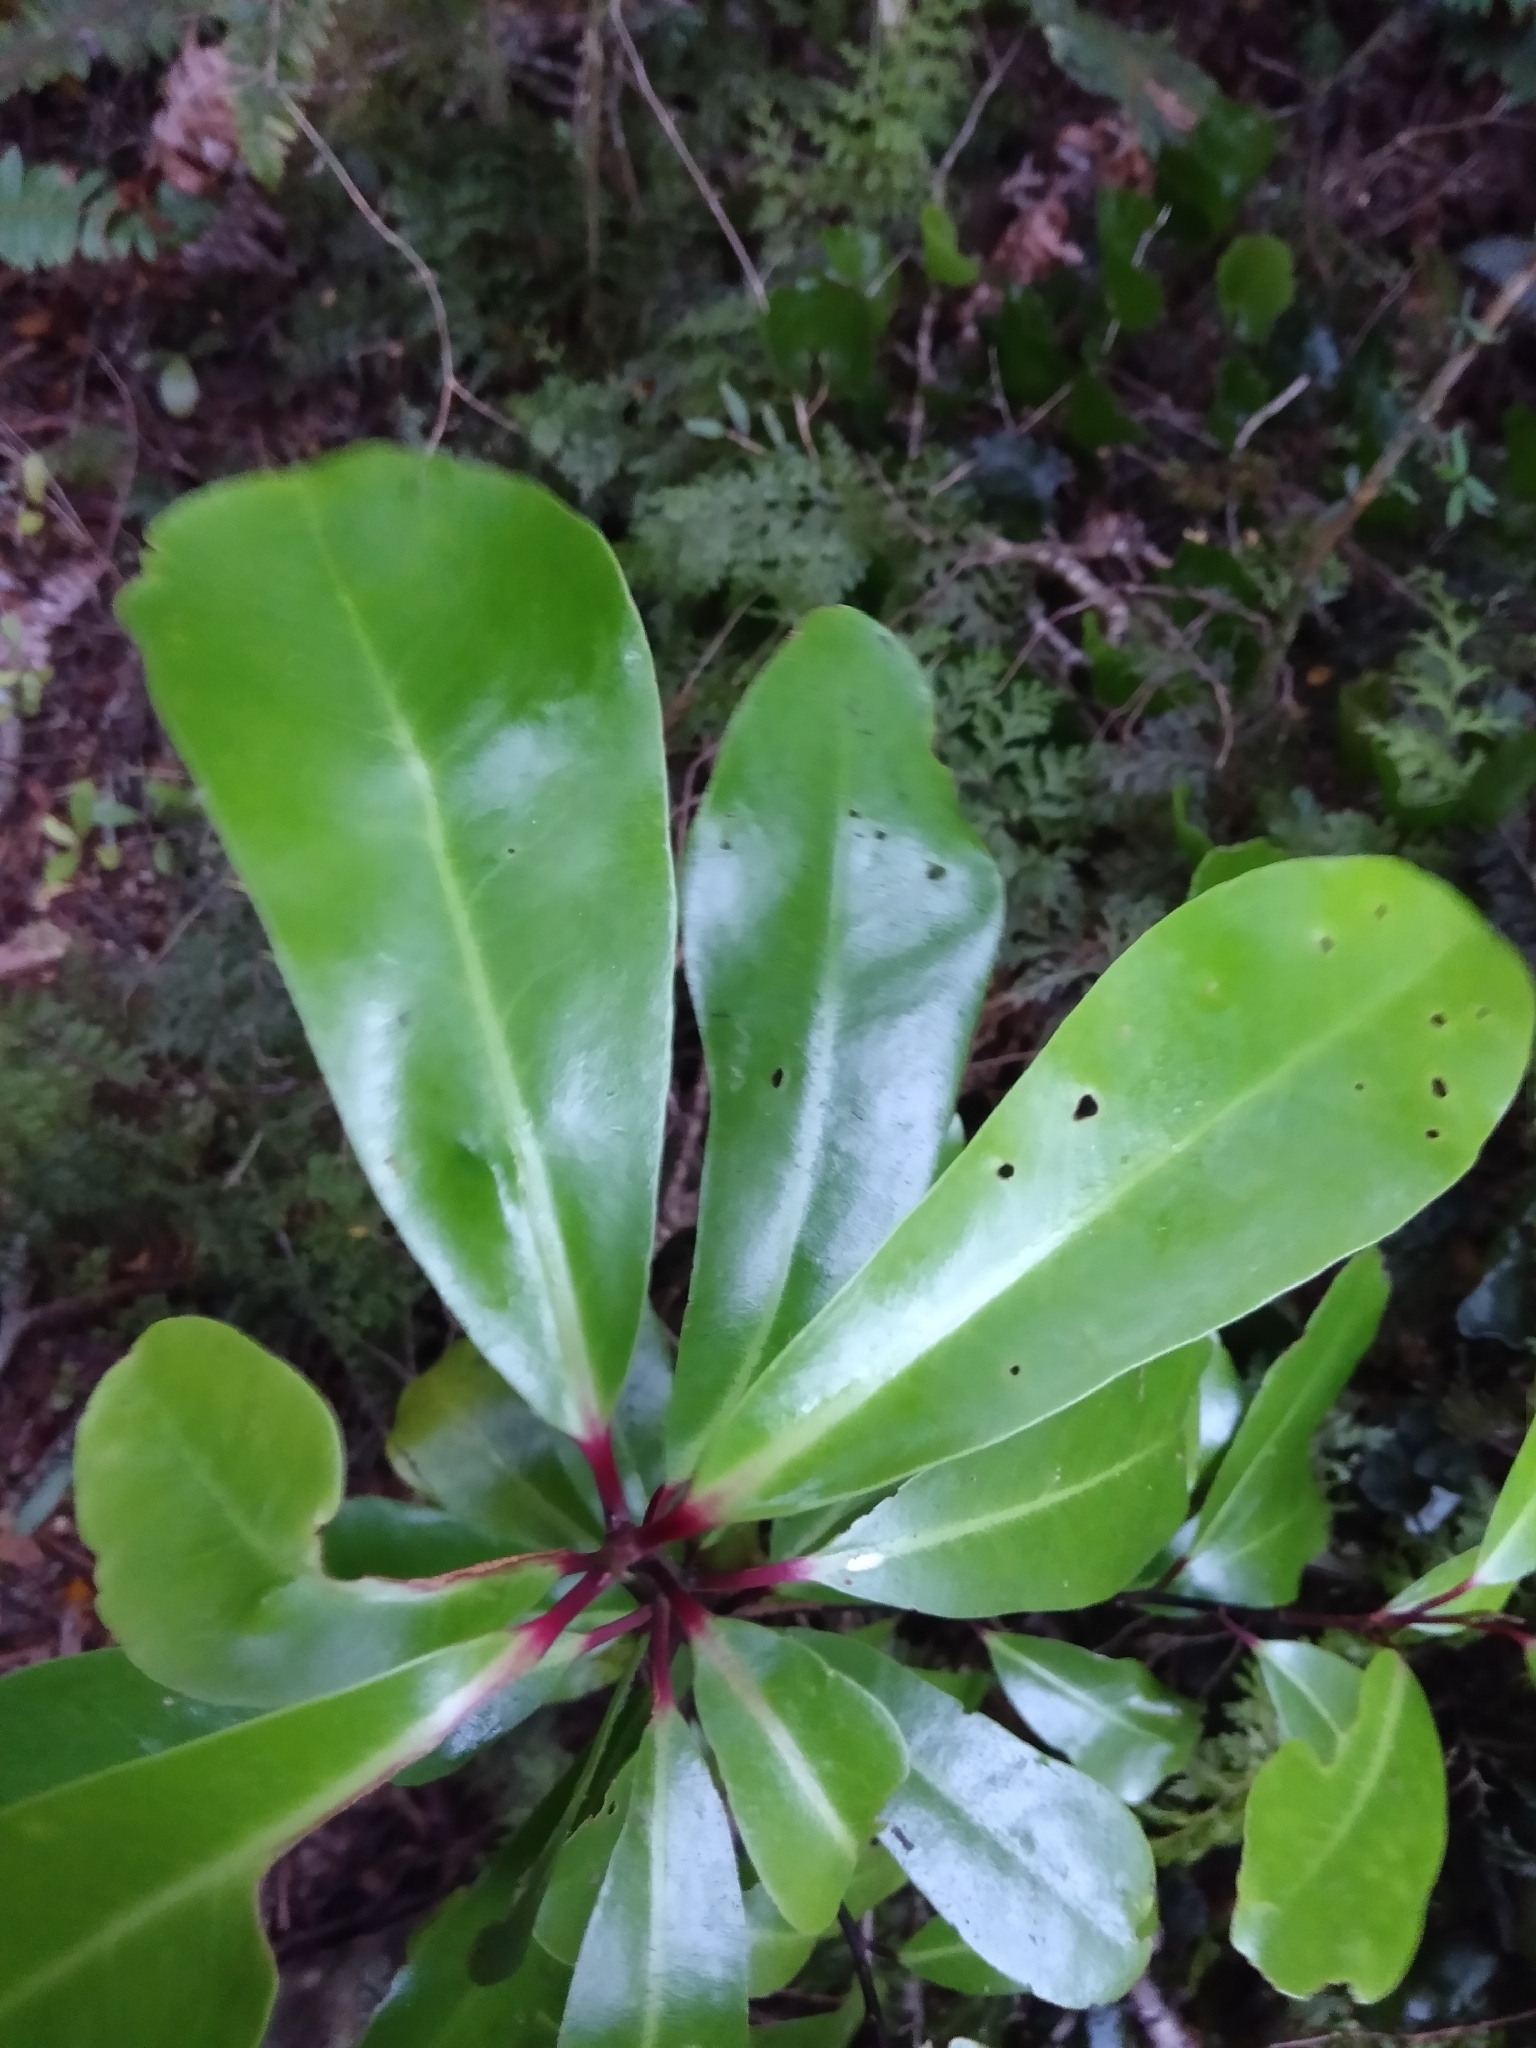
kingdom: Plantae
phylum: Tracheophyta
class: Magnoliopsida
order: Canellales
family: Winteraceae
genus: Pseudowintera
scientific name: Pseudowintera axillaris
